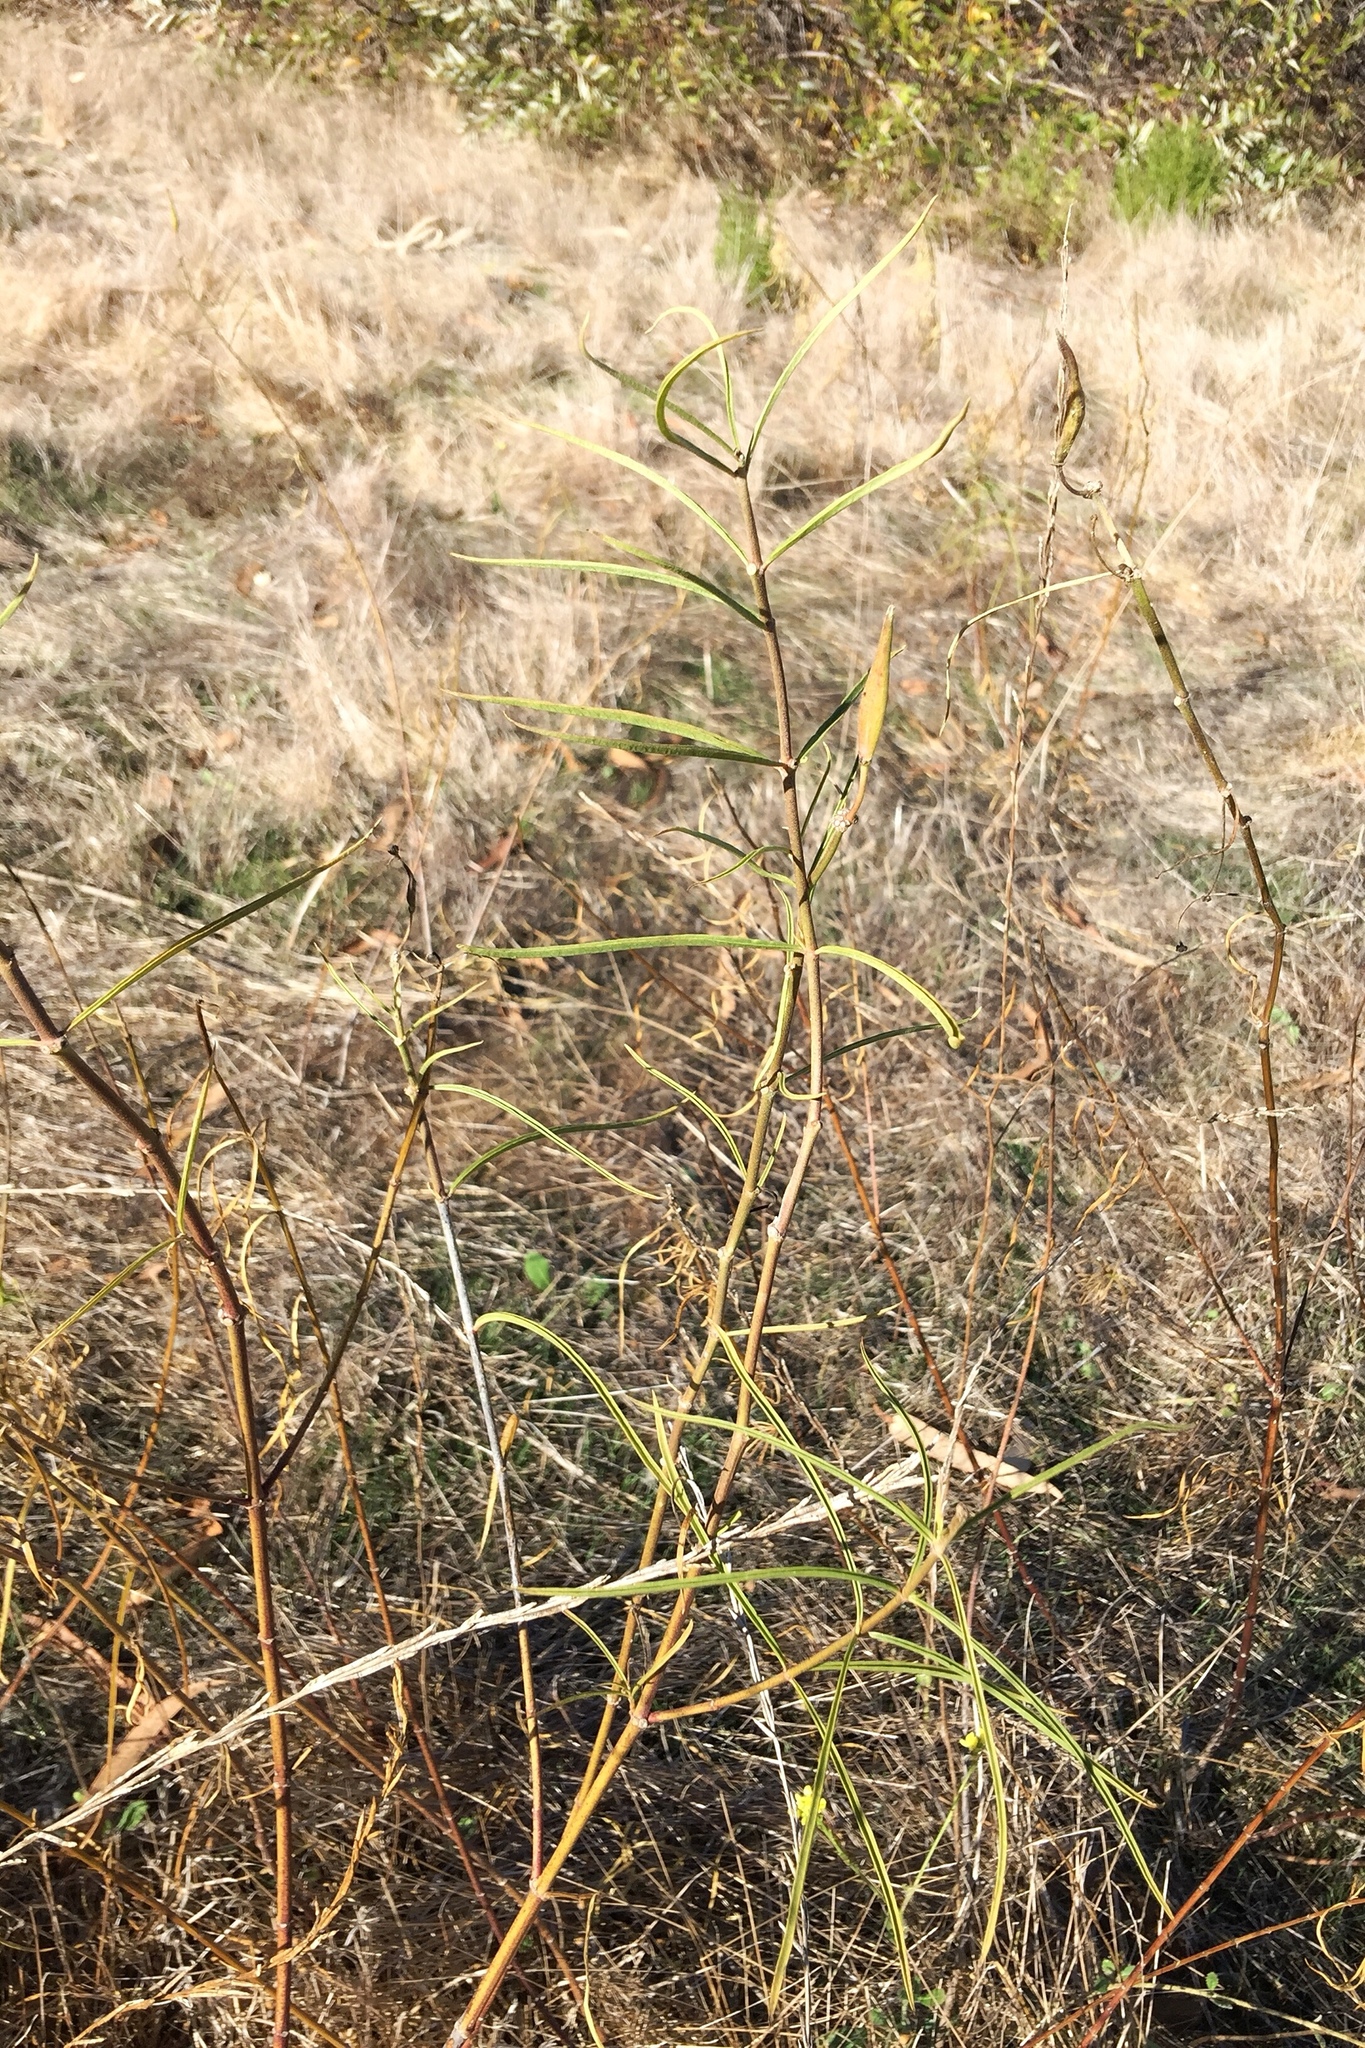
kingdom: Plantae
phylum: Tracheophyta
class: Magnoliopsida
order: Gentianales
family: Apocynaceae
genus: Asclepias
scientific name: Asclepias fascicularis
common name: Mexican milkweed
